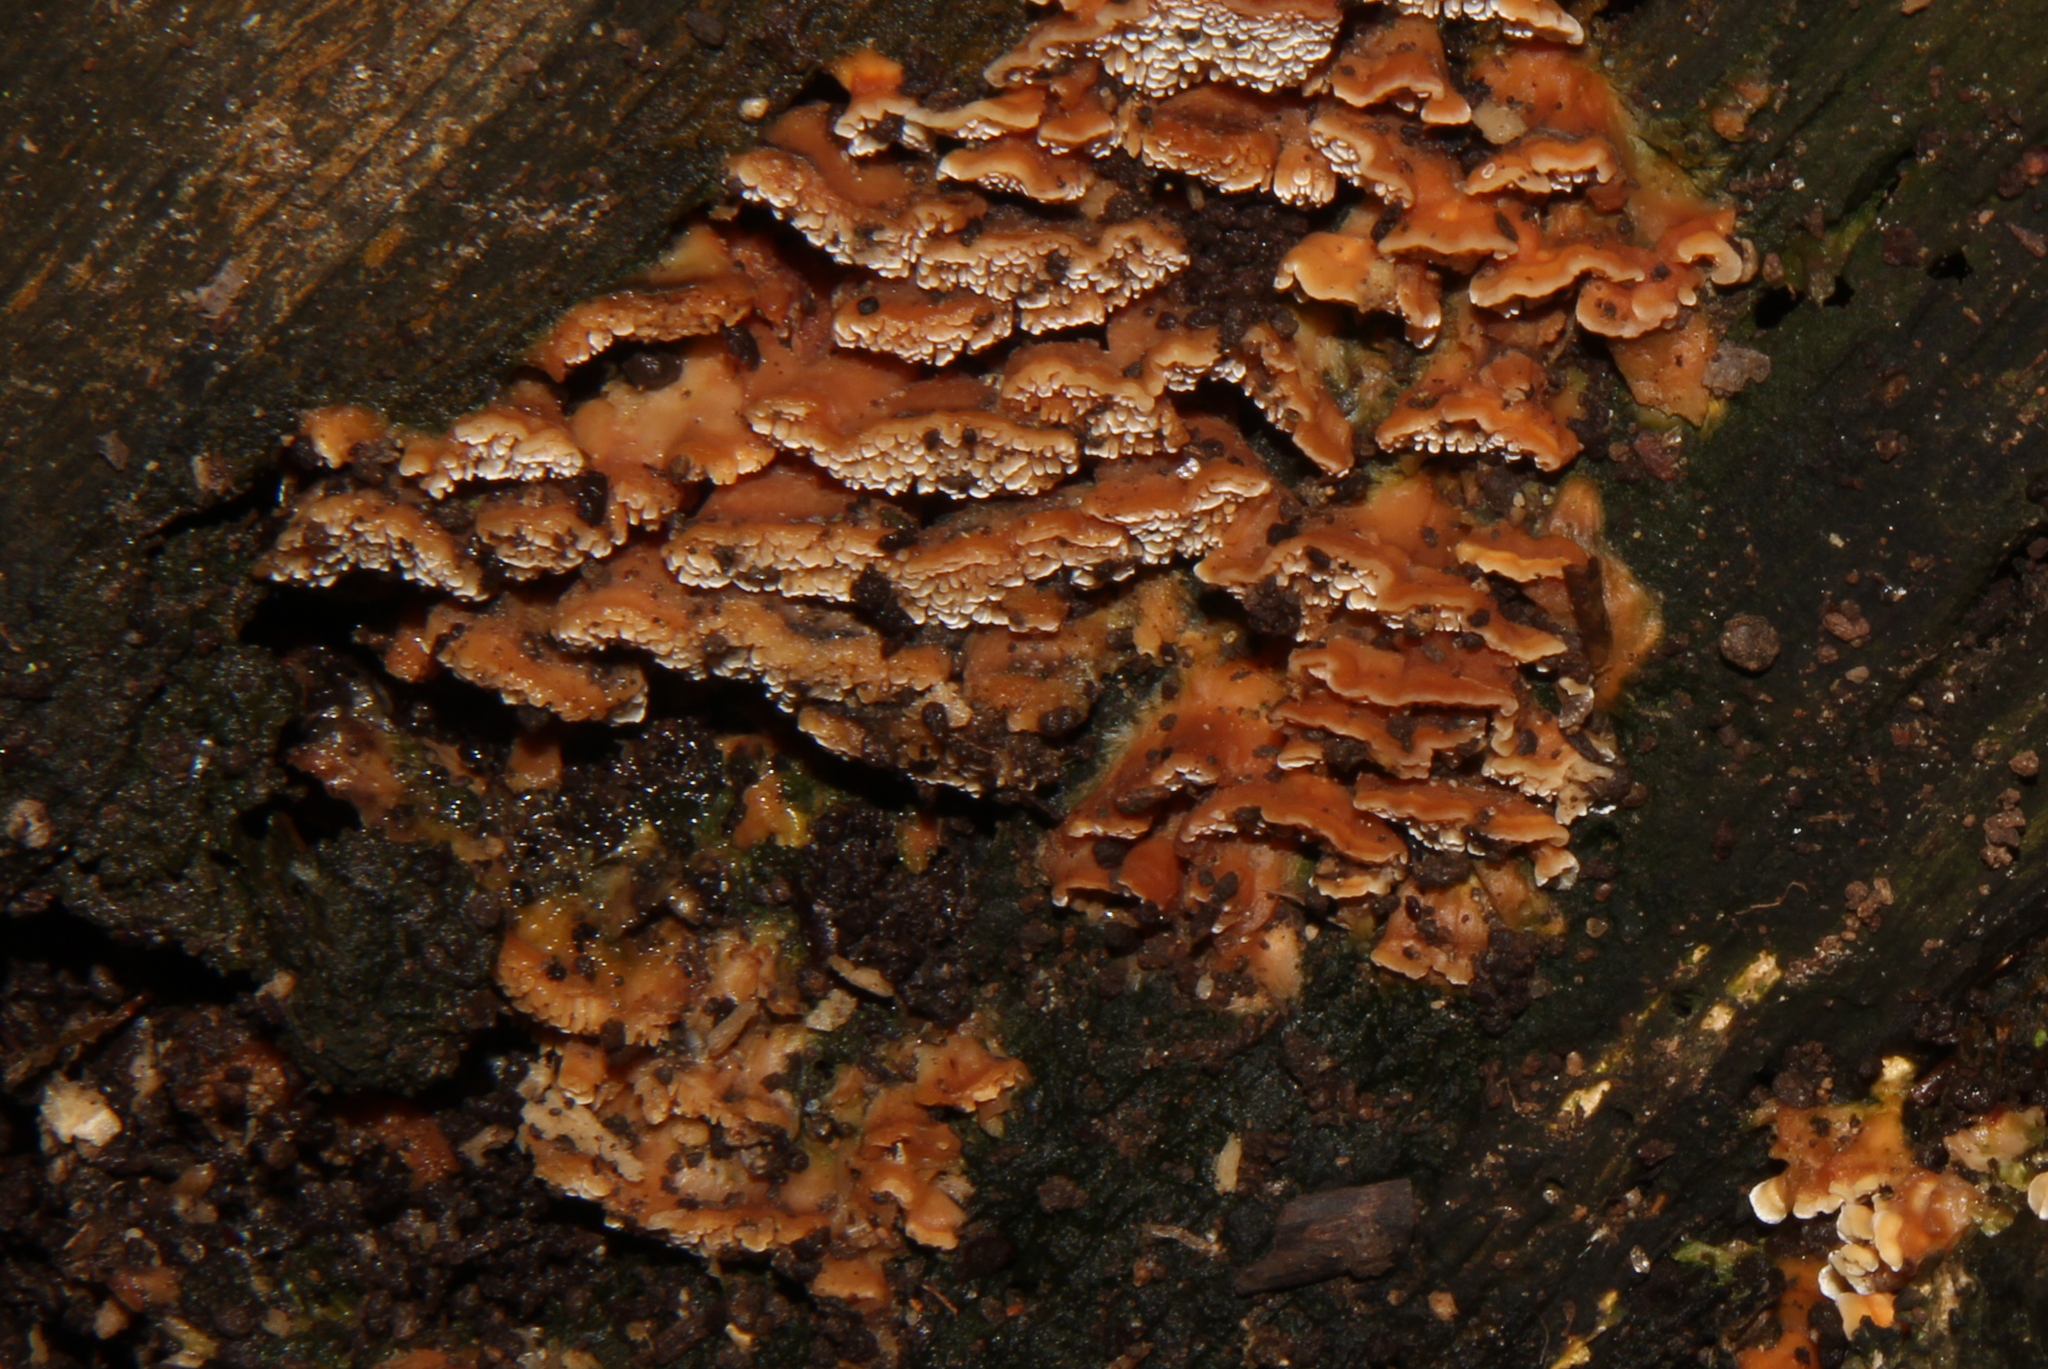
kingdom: Fungi
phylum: Basidiomycota
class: Agaricomycetes
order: Polyporales
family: Cerrenaceae
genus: Cerrena
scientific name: Cerrena zonata
